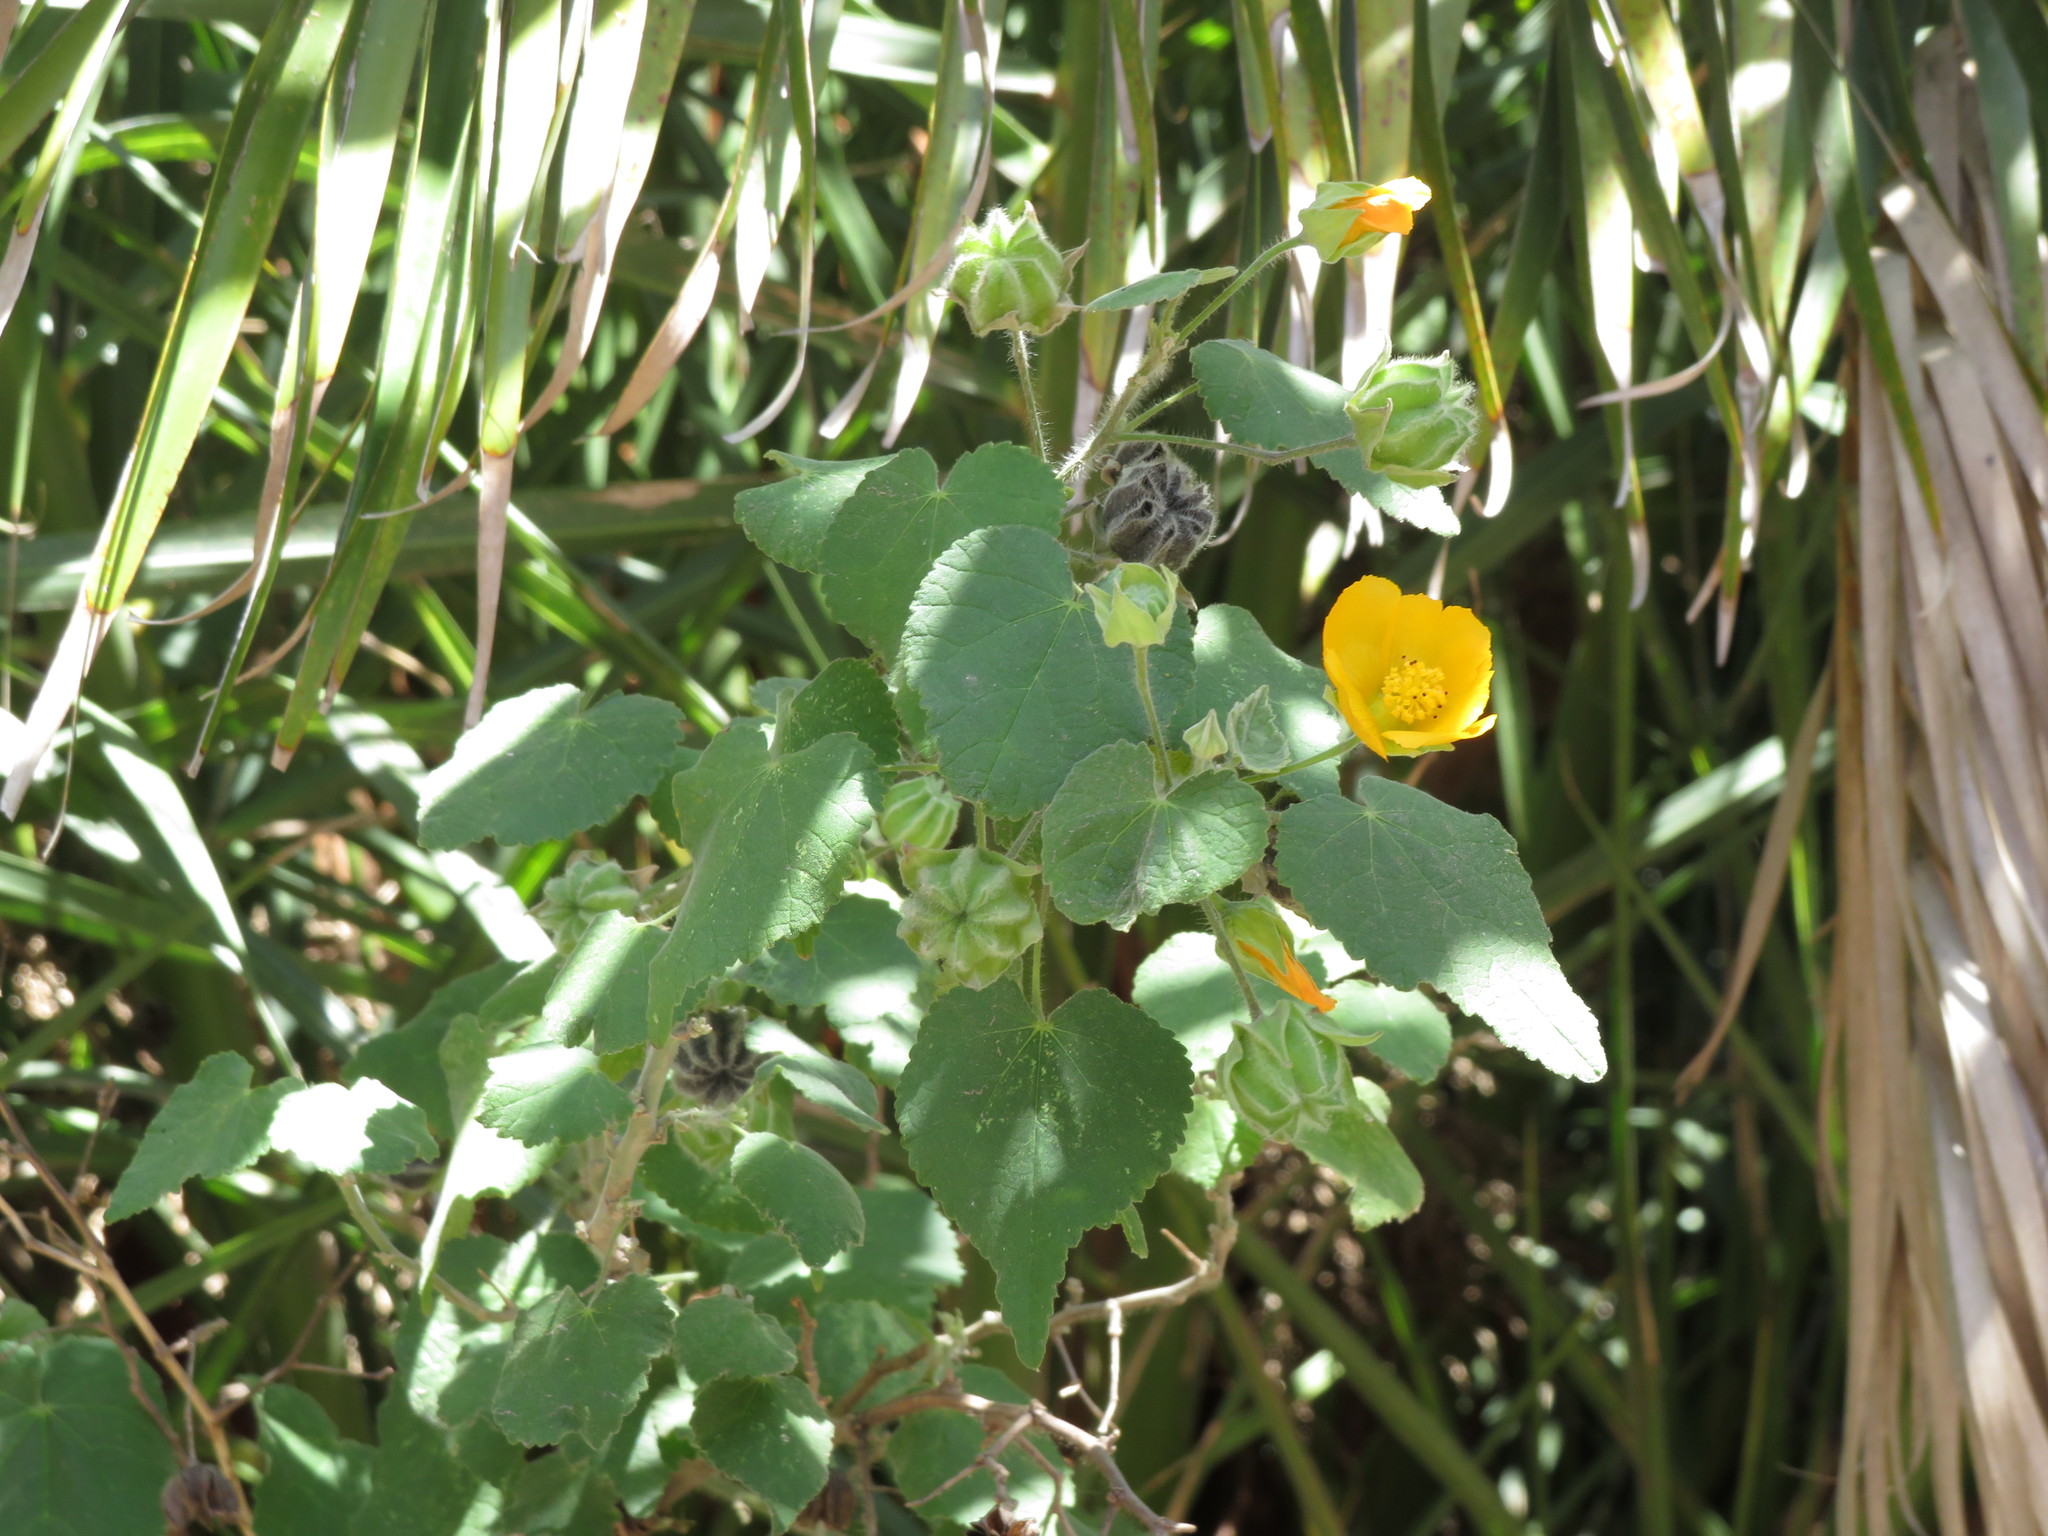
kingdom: Plantae
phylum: Tracheophyta
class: Magnoliopsida
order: Malvales
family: Malvaceae
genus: Abutilon
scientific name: Abutilon grandifolium
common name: Hairy abutilon
